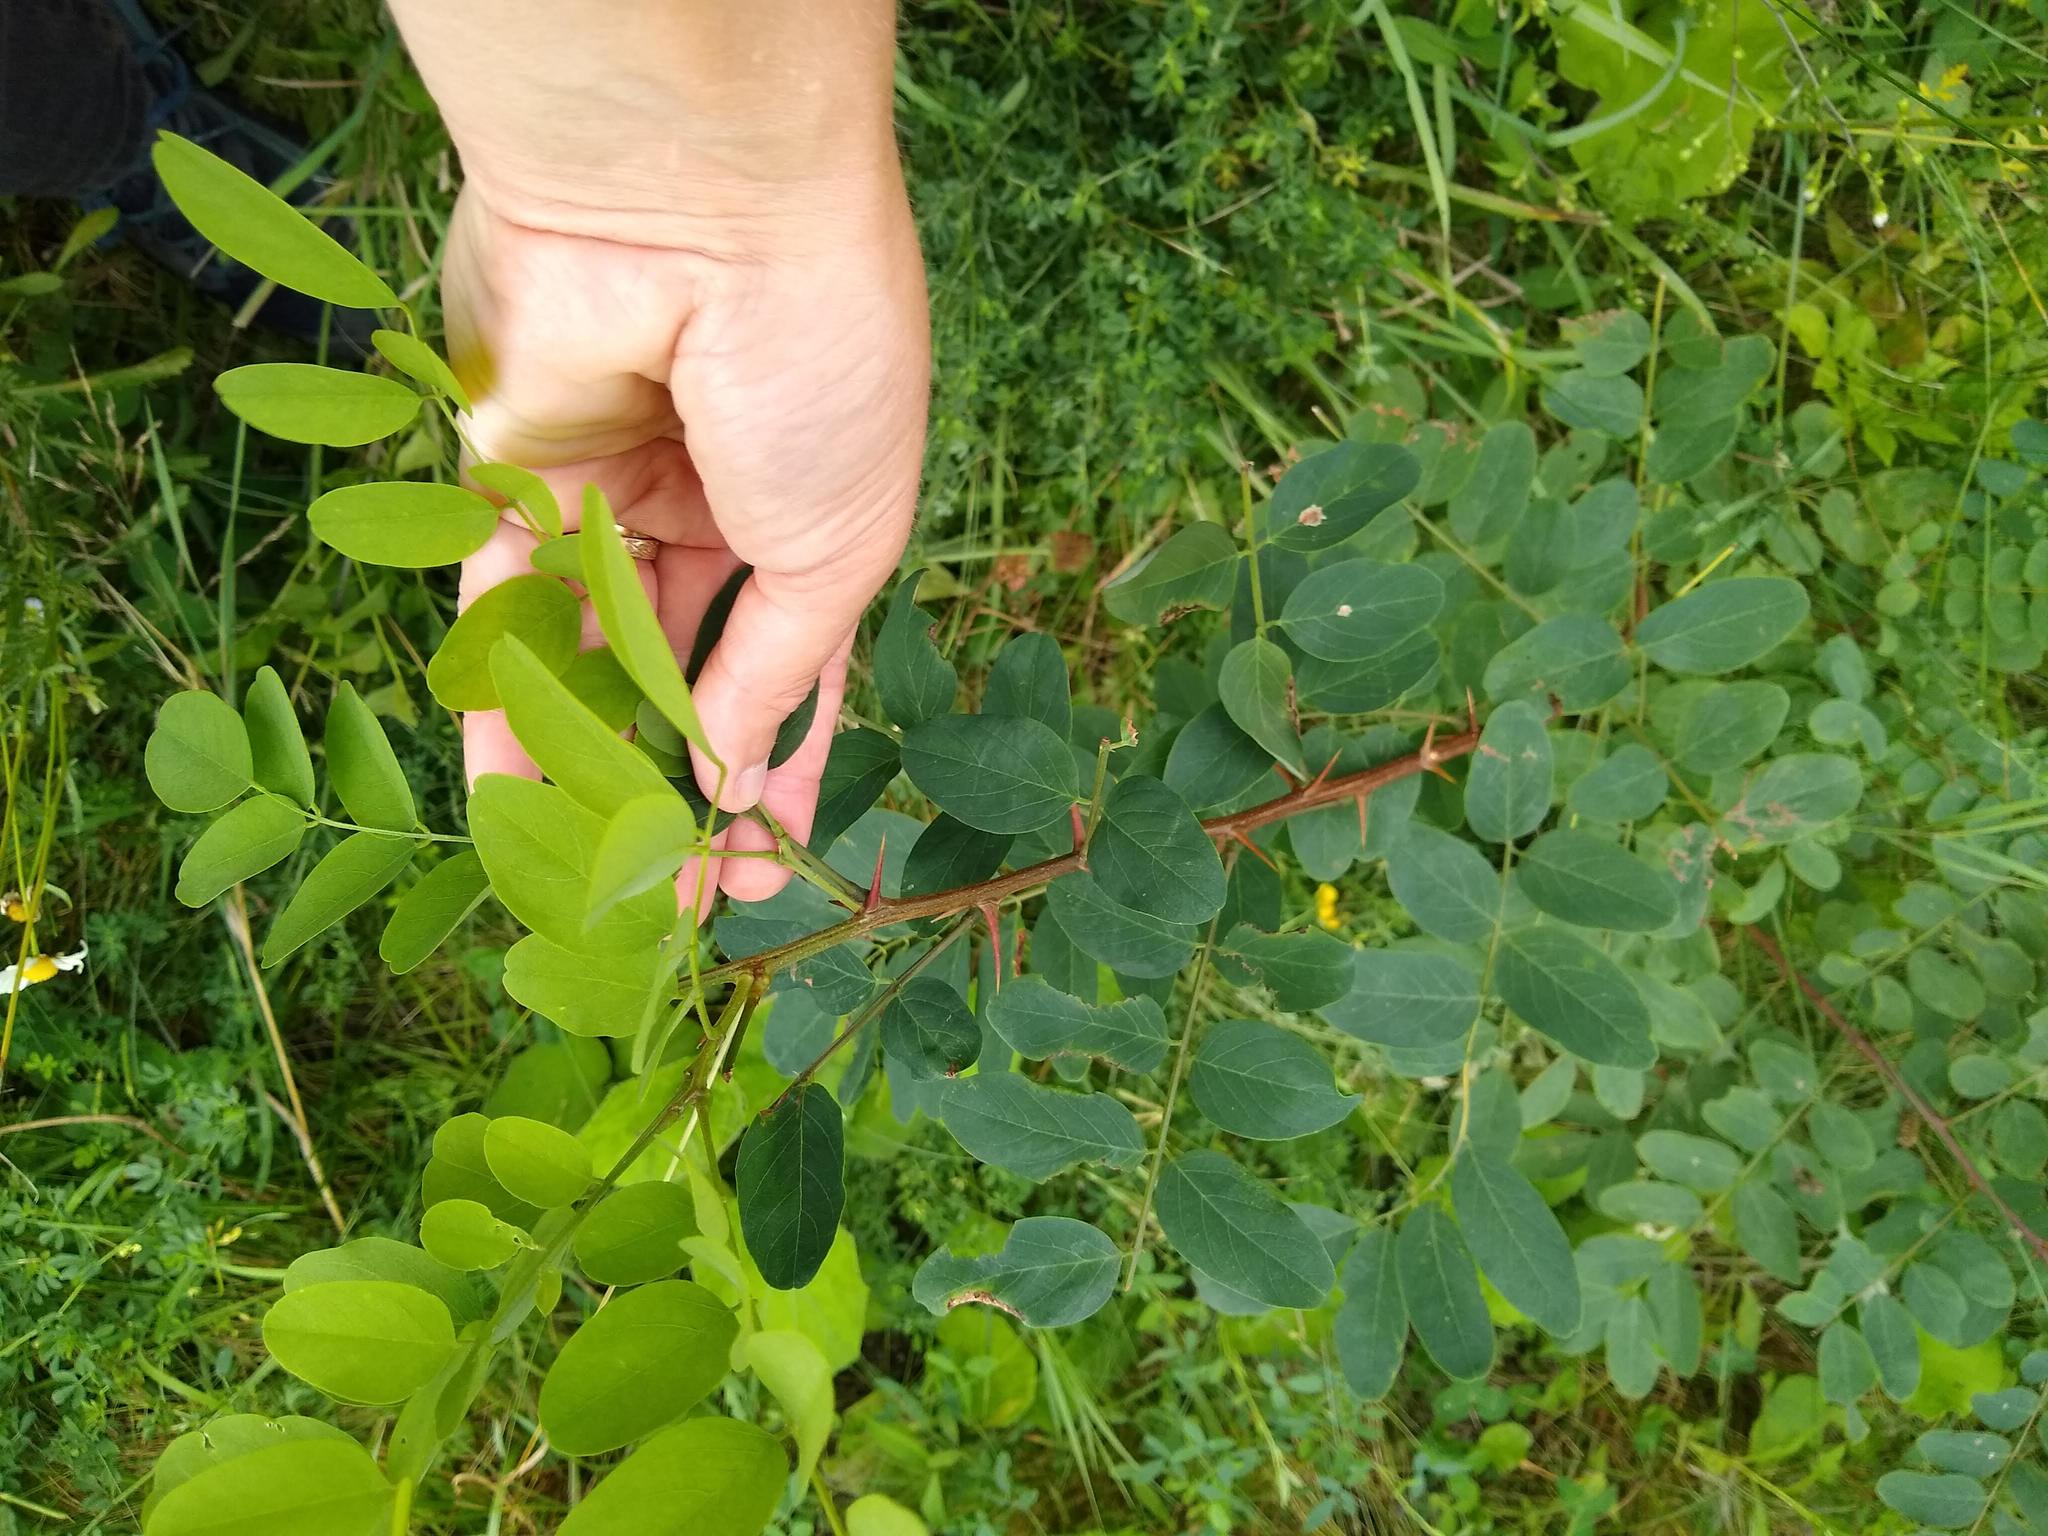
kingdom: Plantae
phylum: Tracheophyta
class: Magnoliopsida
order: Fabales
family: Fabaceae
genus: Robinia
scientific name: Robinia pseudoacacia
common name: Black locust
